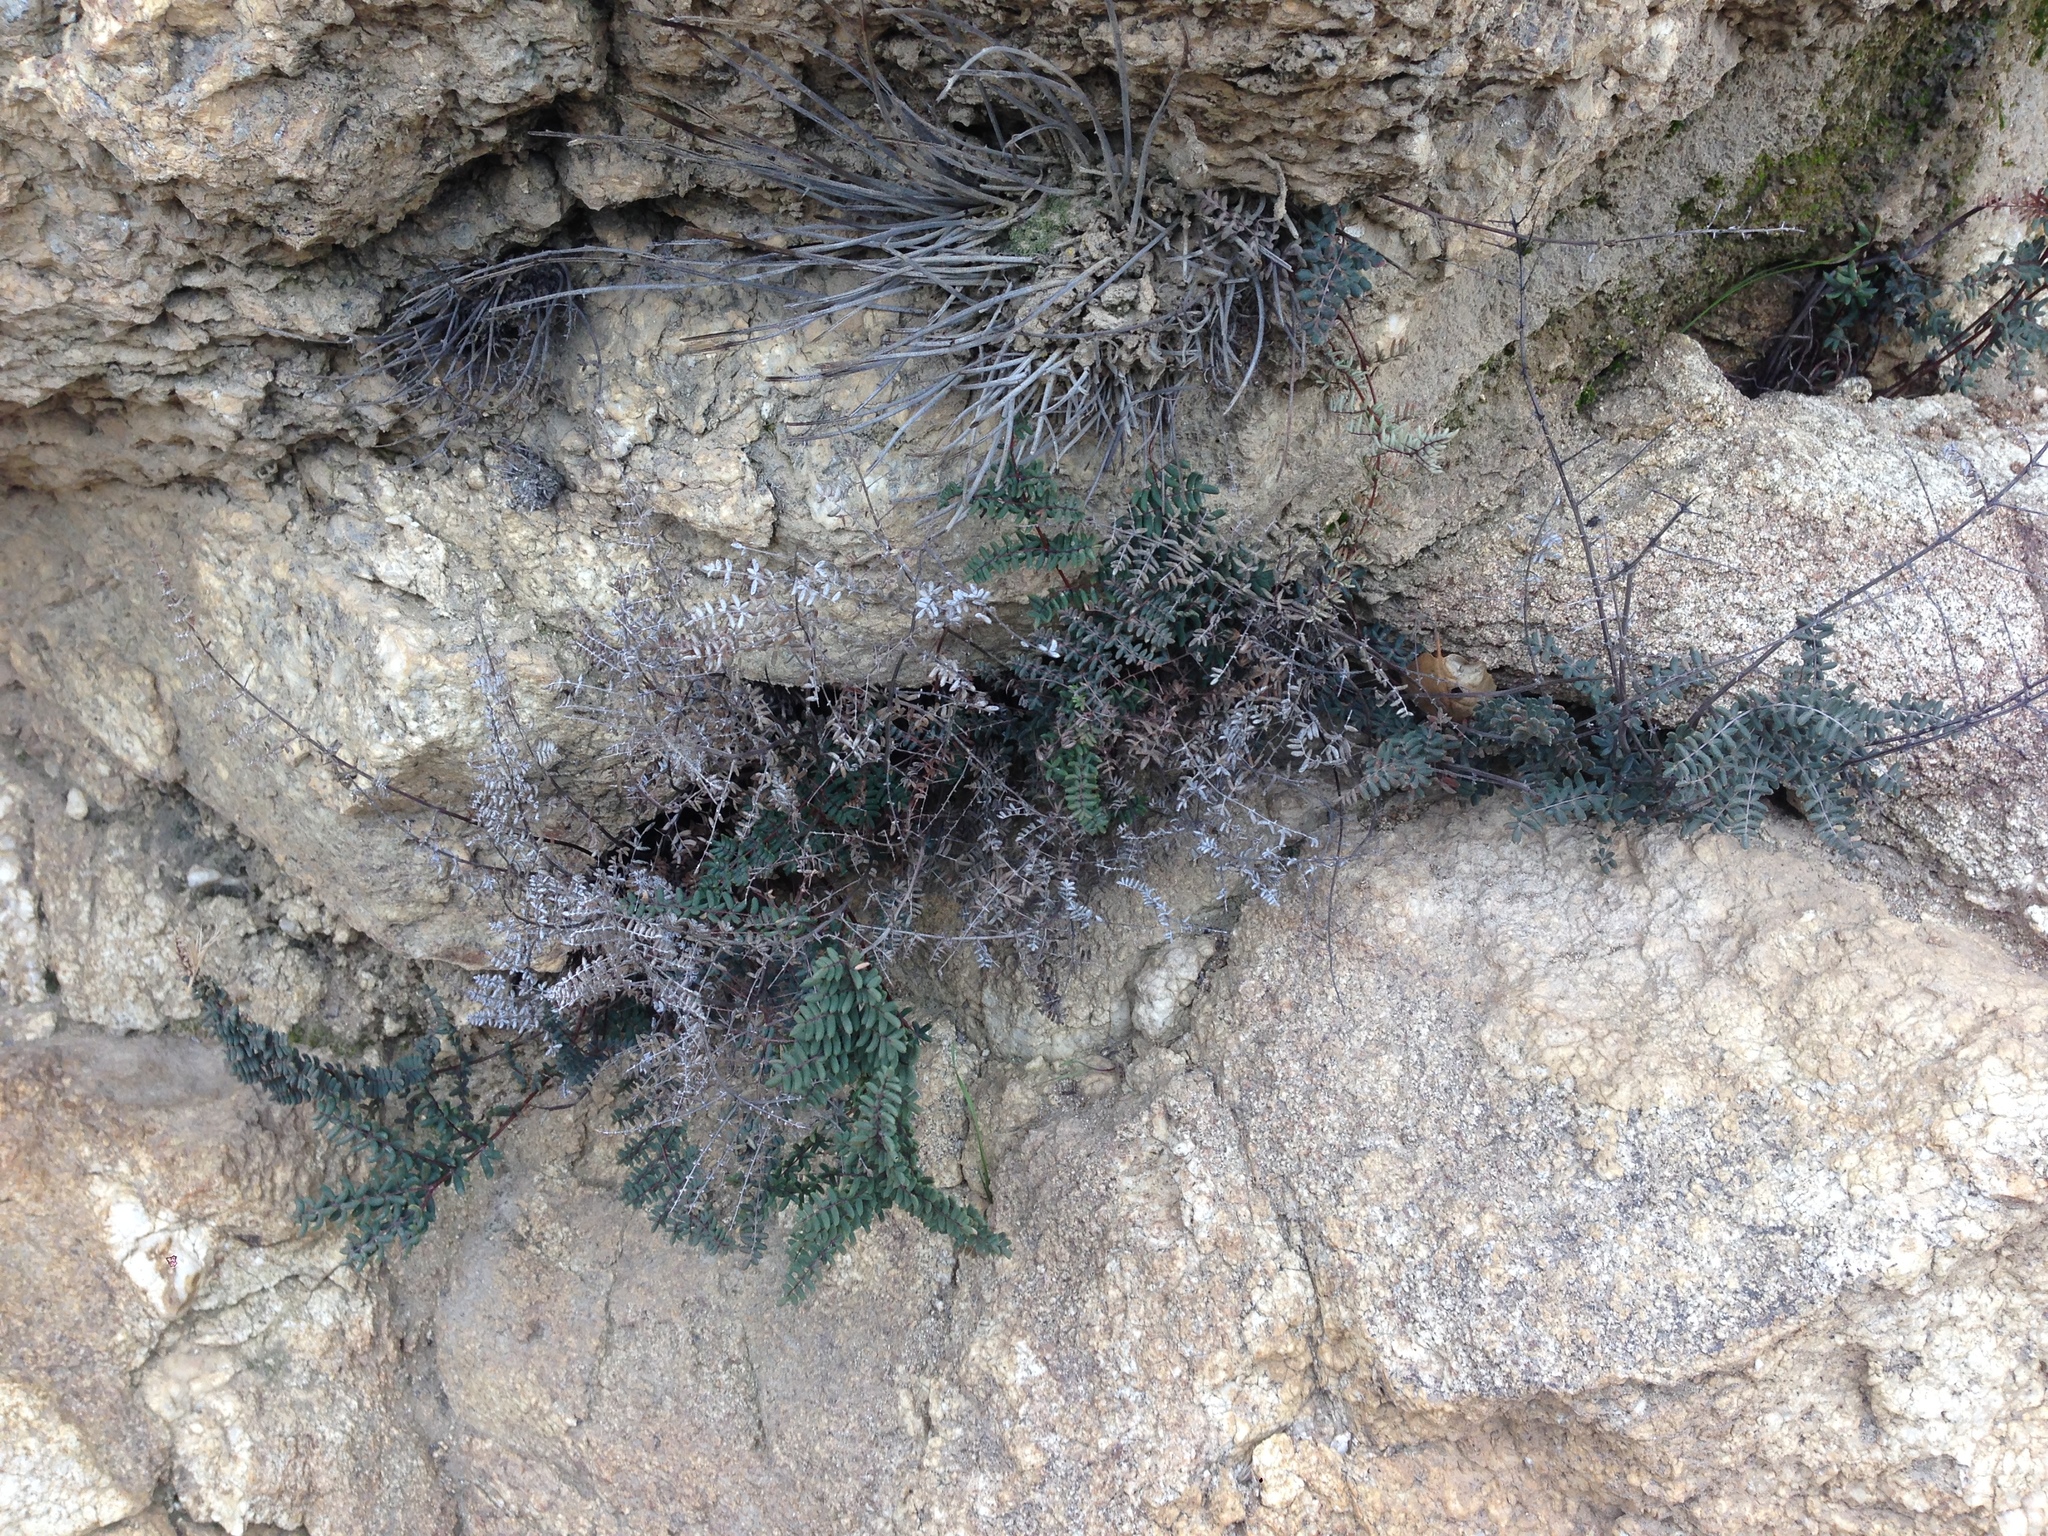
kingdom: Plantae
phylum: Tracheophyta
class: Polypodiopsida
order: Polypodiales
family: Pteridaceae
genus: Pellaea
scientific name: Pellaea mucronata
